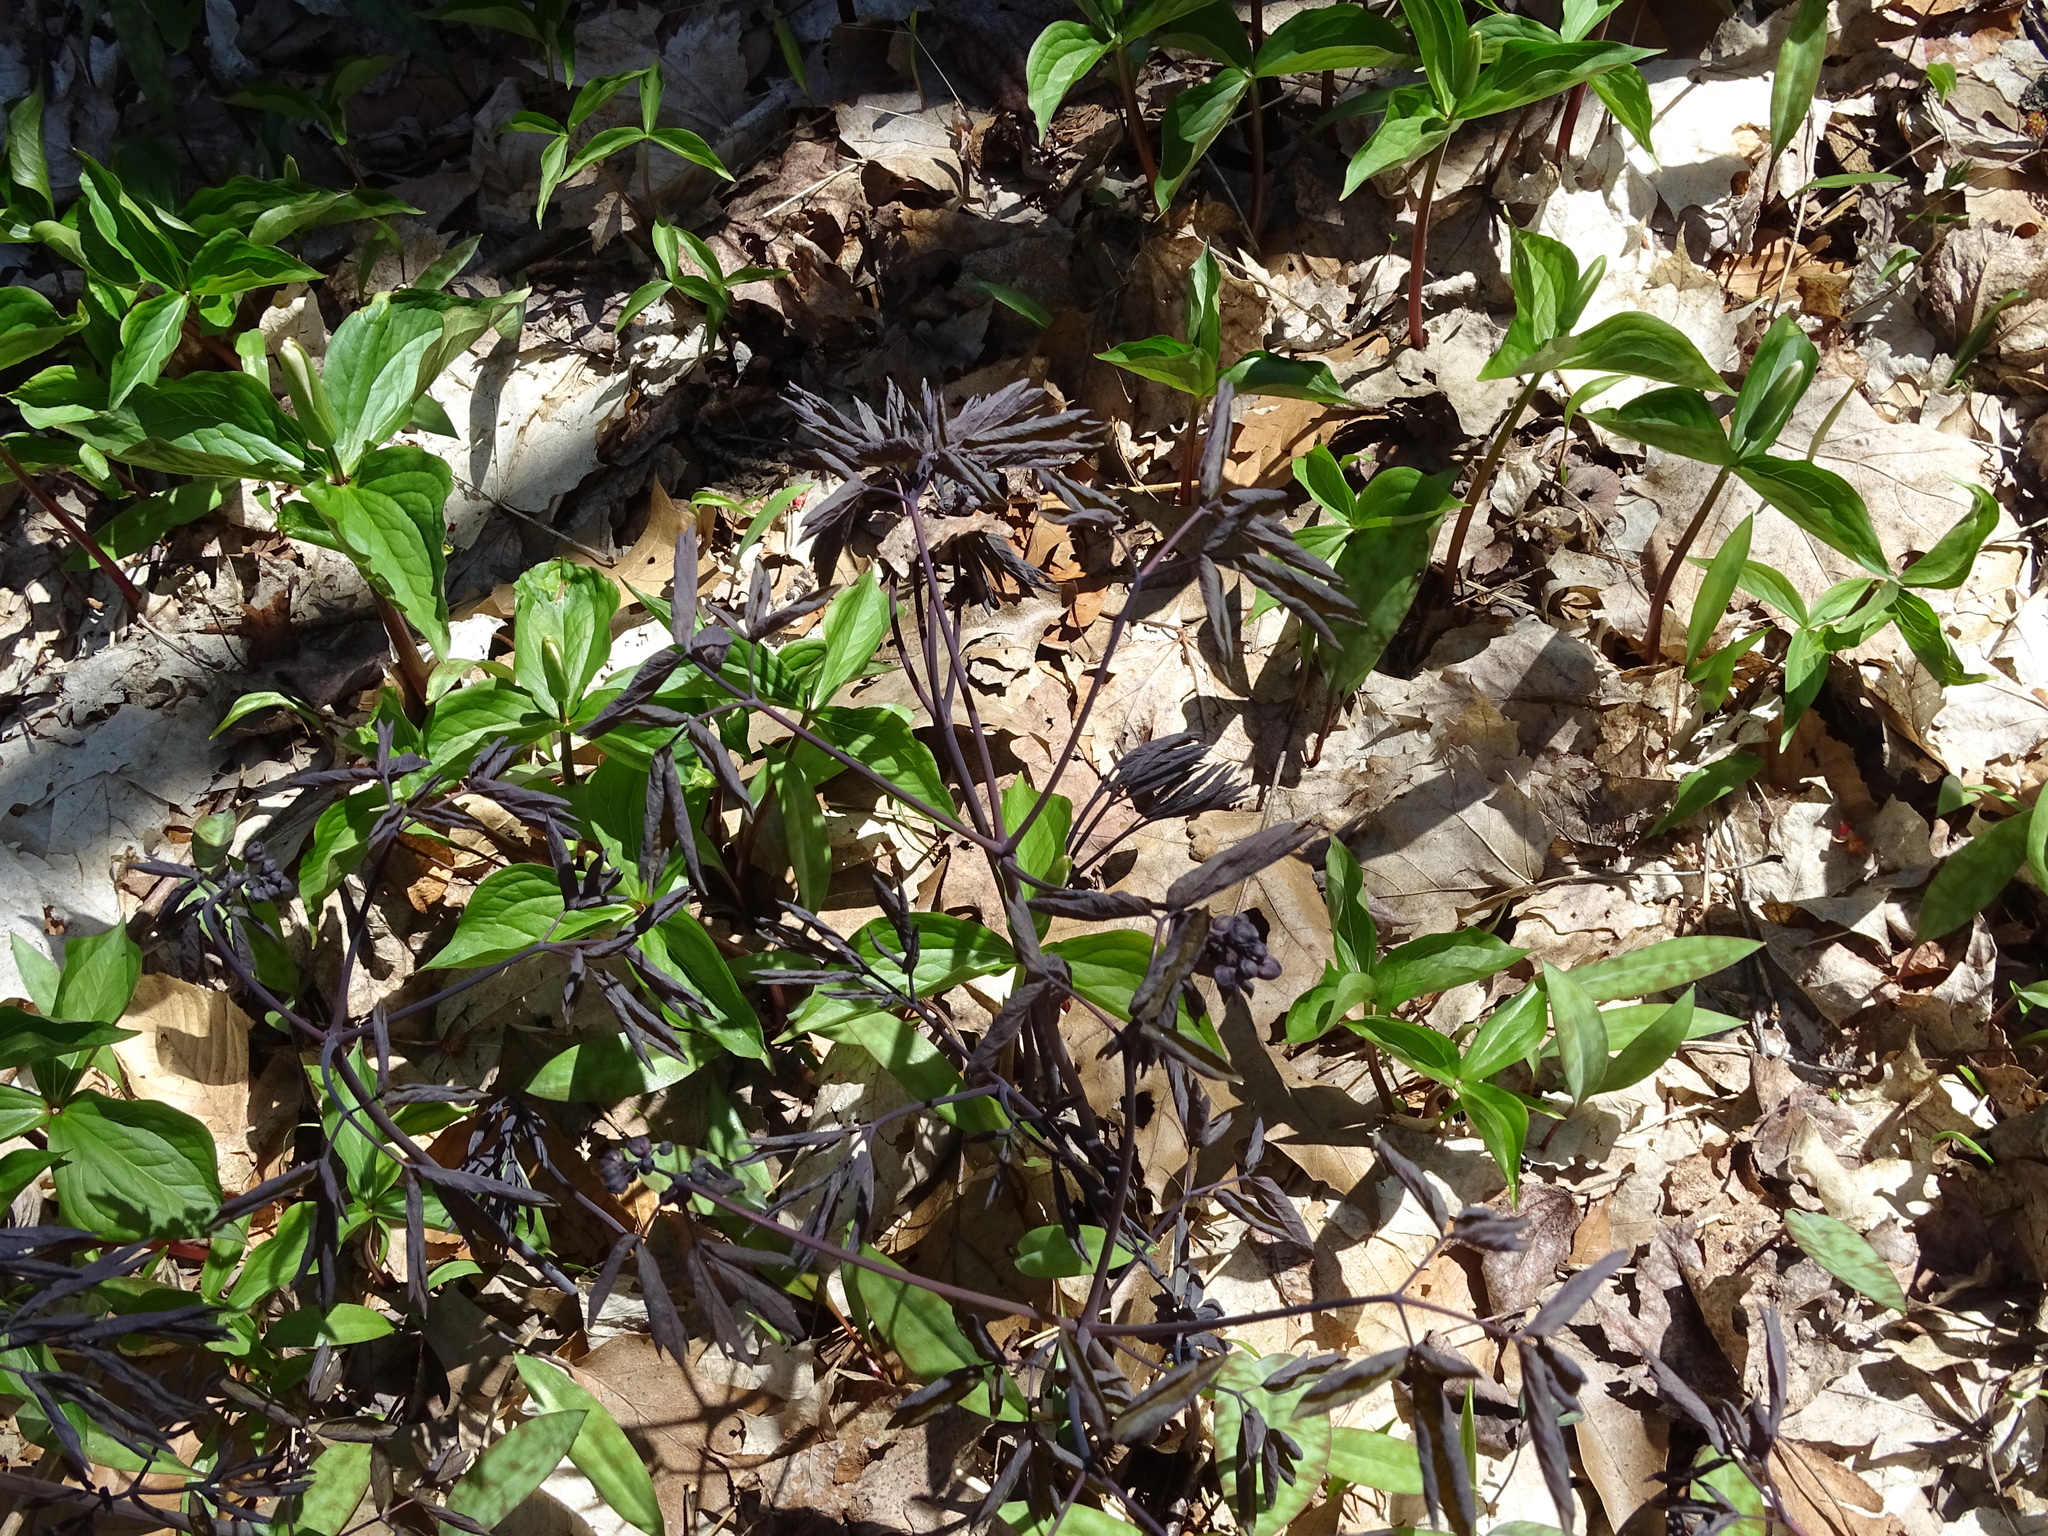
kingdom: Plantae
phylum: Tracheophyta
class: Magnoliopsida
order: Ranunculales
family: Berberidaceae
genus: Caulophyllum
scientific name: Caulophyllum giganteum
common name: Blue cohosh
